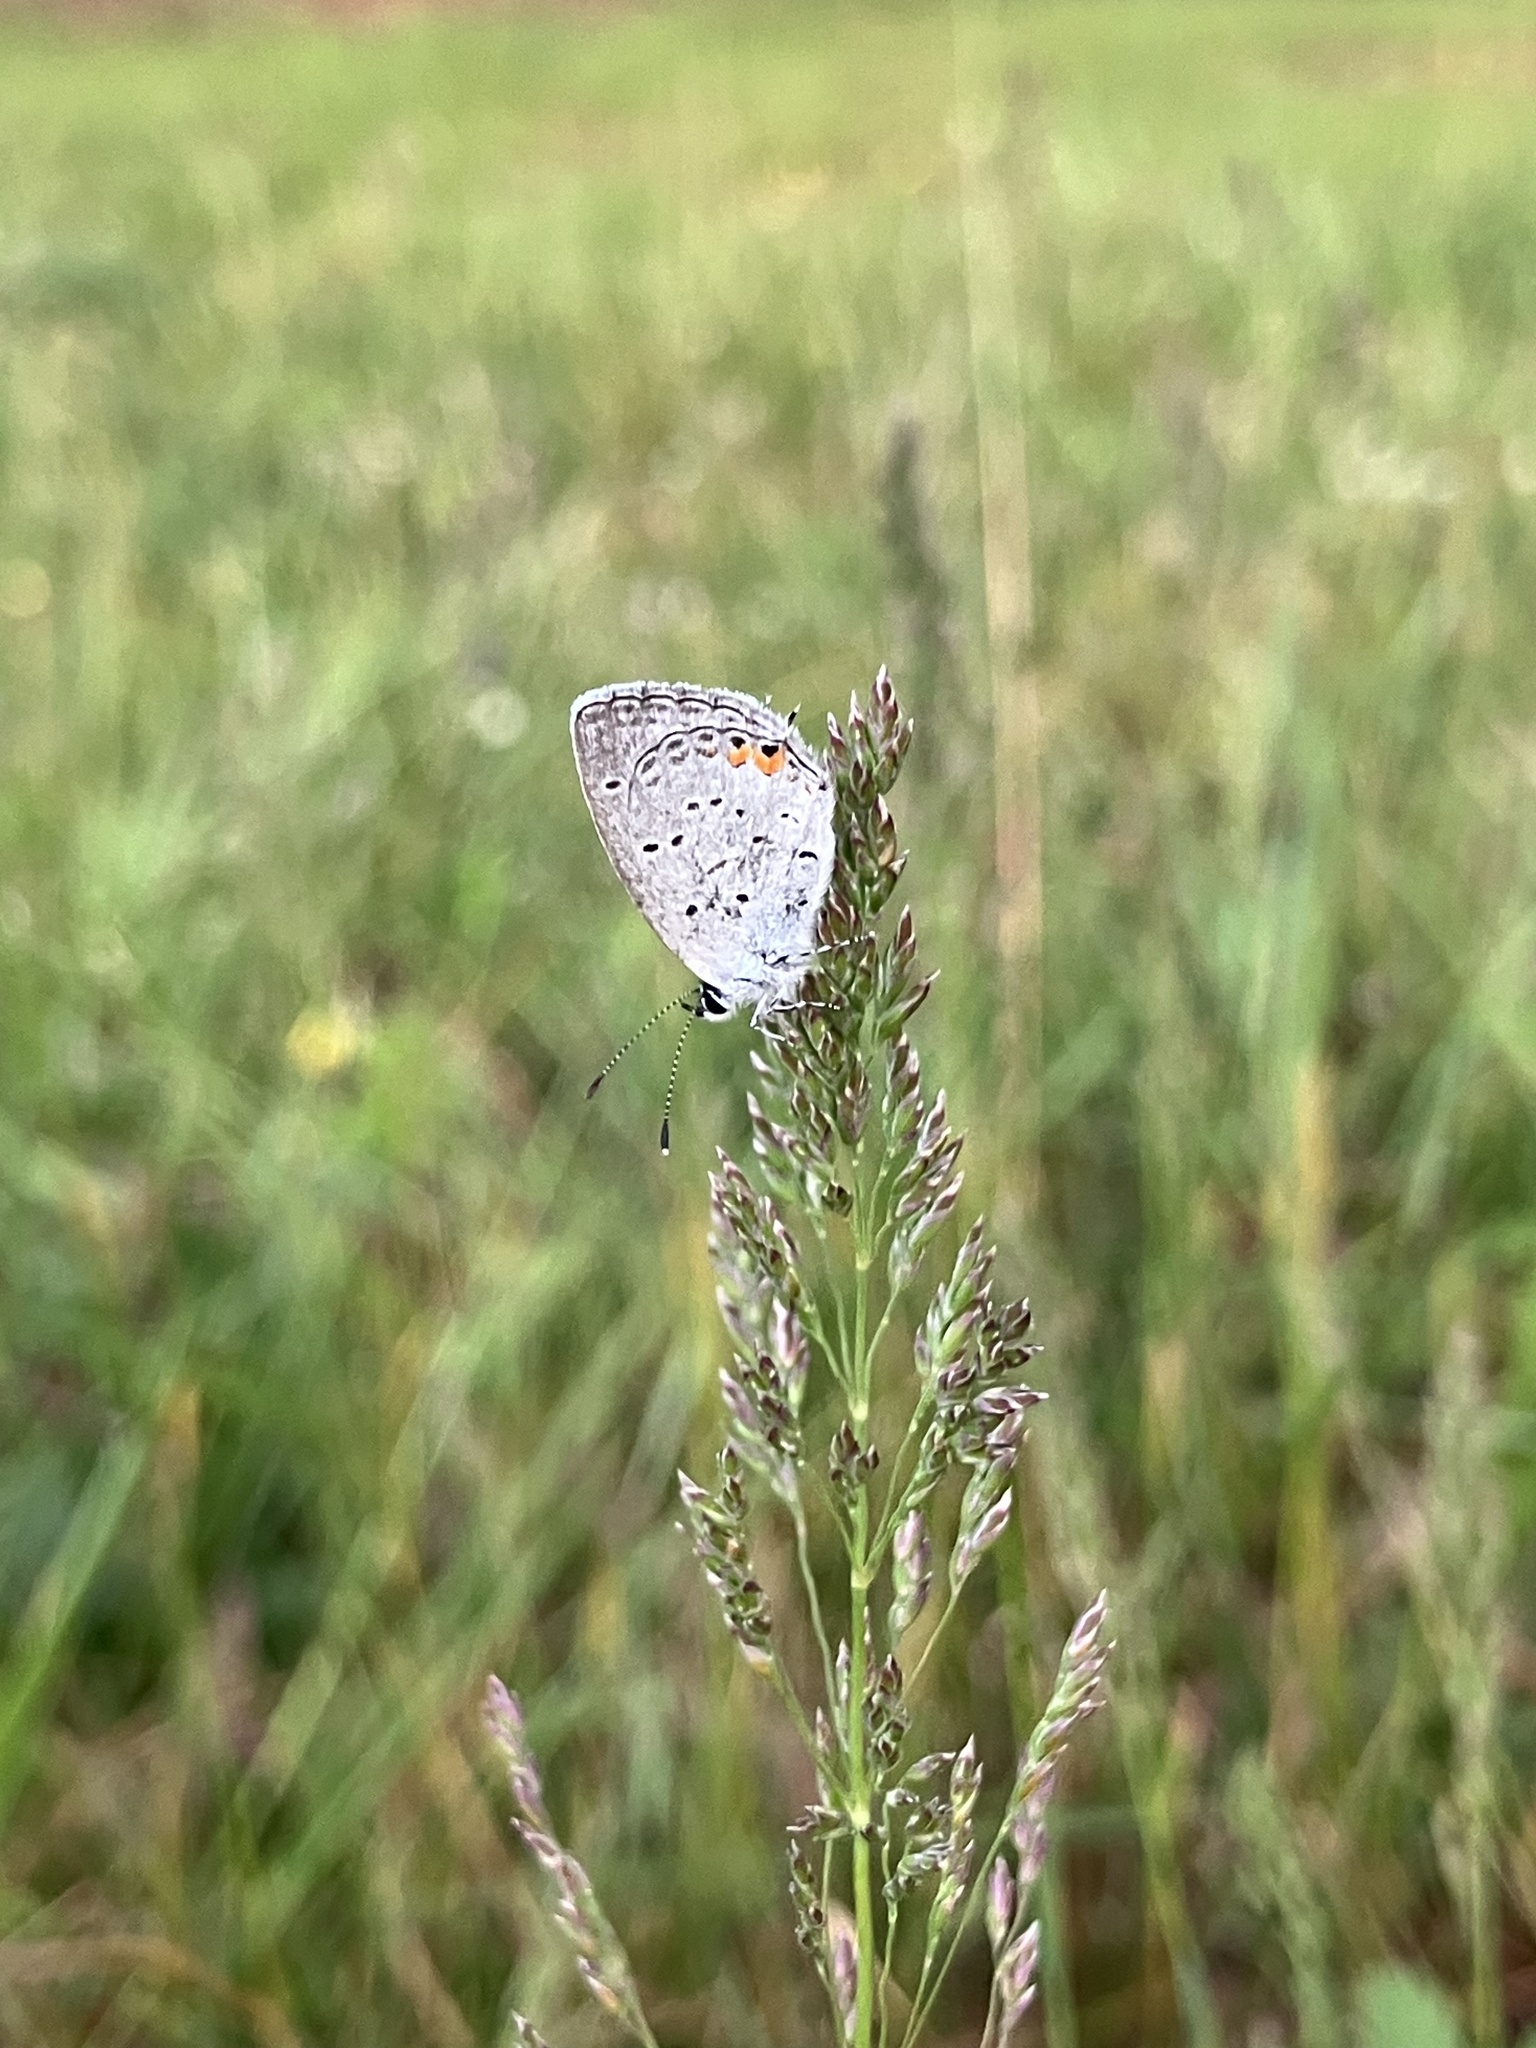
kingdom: Animalia
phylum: Arthropoda
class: Insecta
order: Lepidoptera
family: Lycaenidae
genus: Elkalyce
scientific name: Elkalyce comyntas
